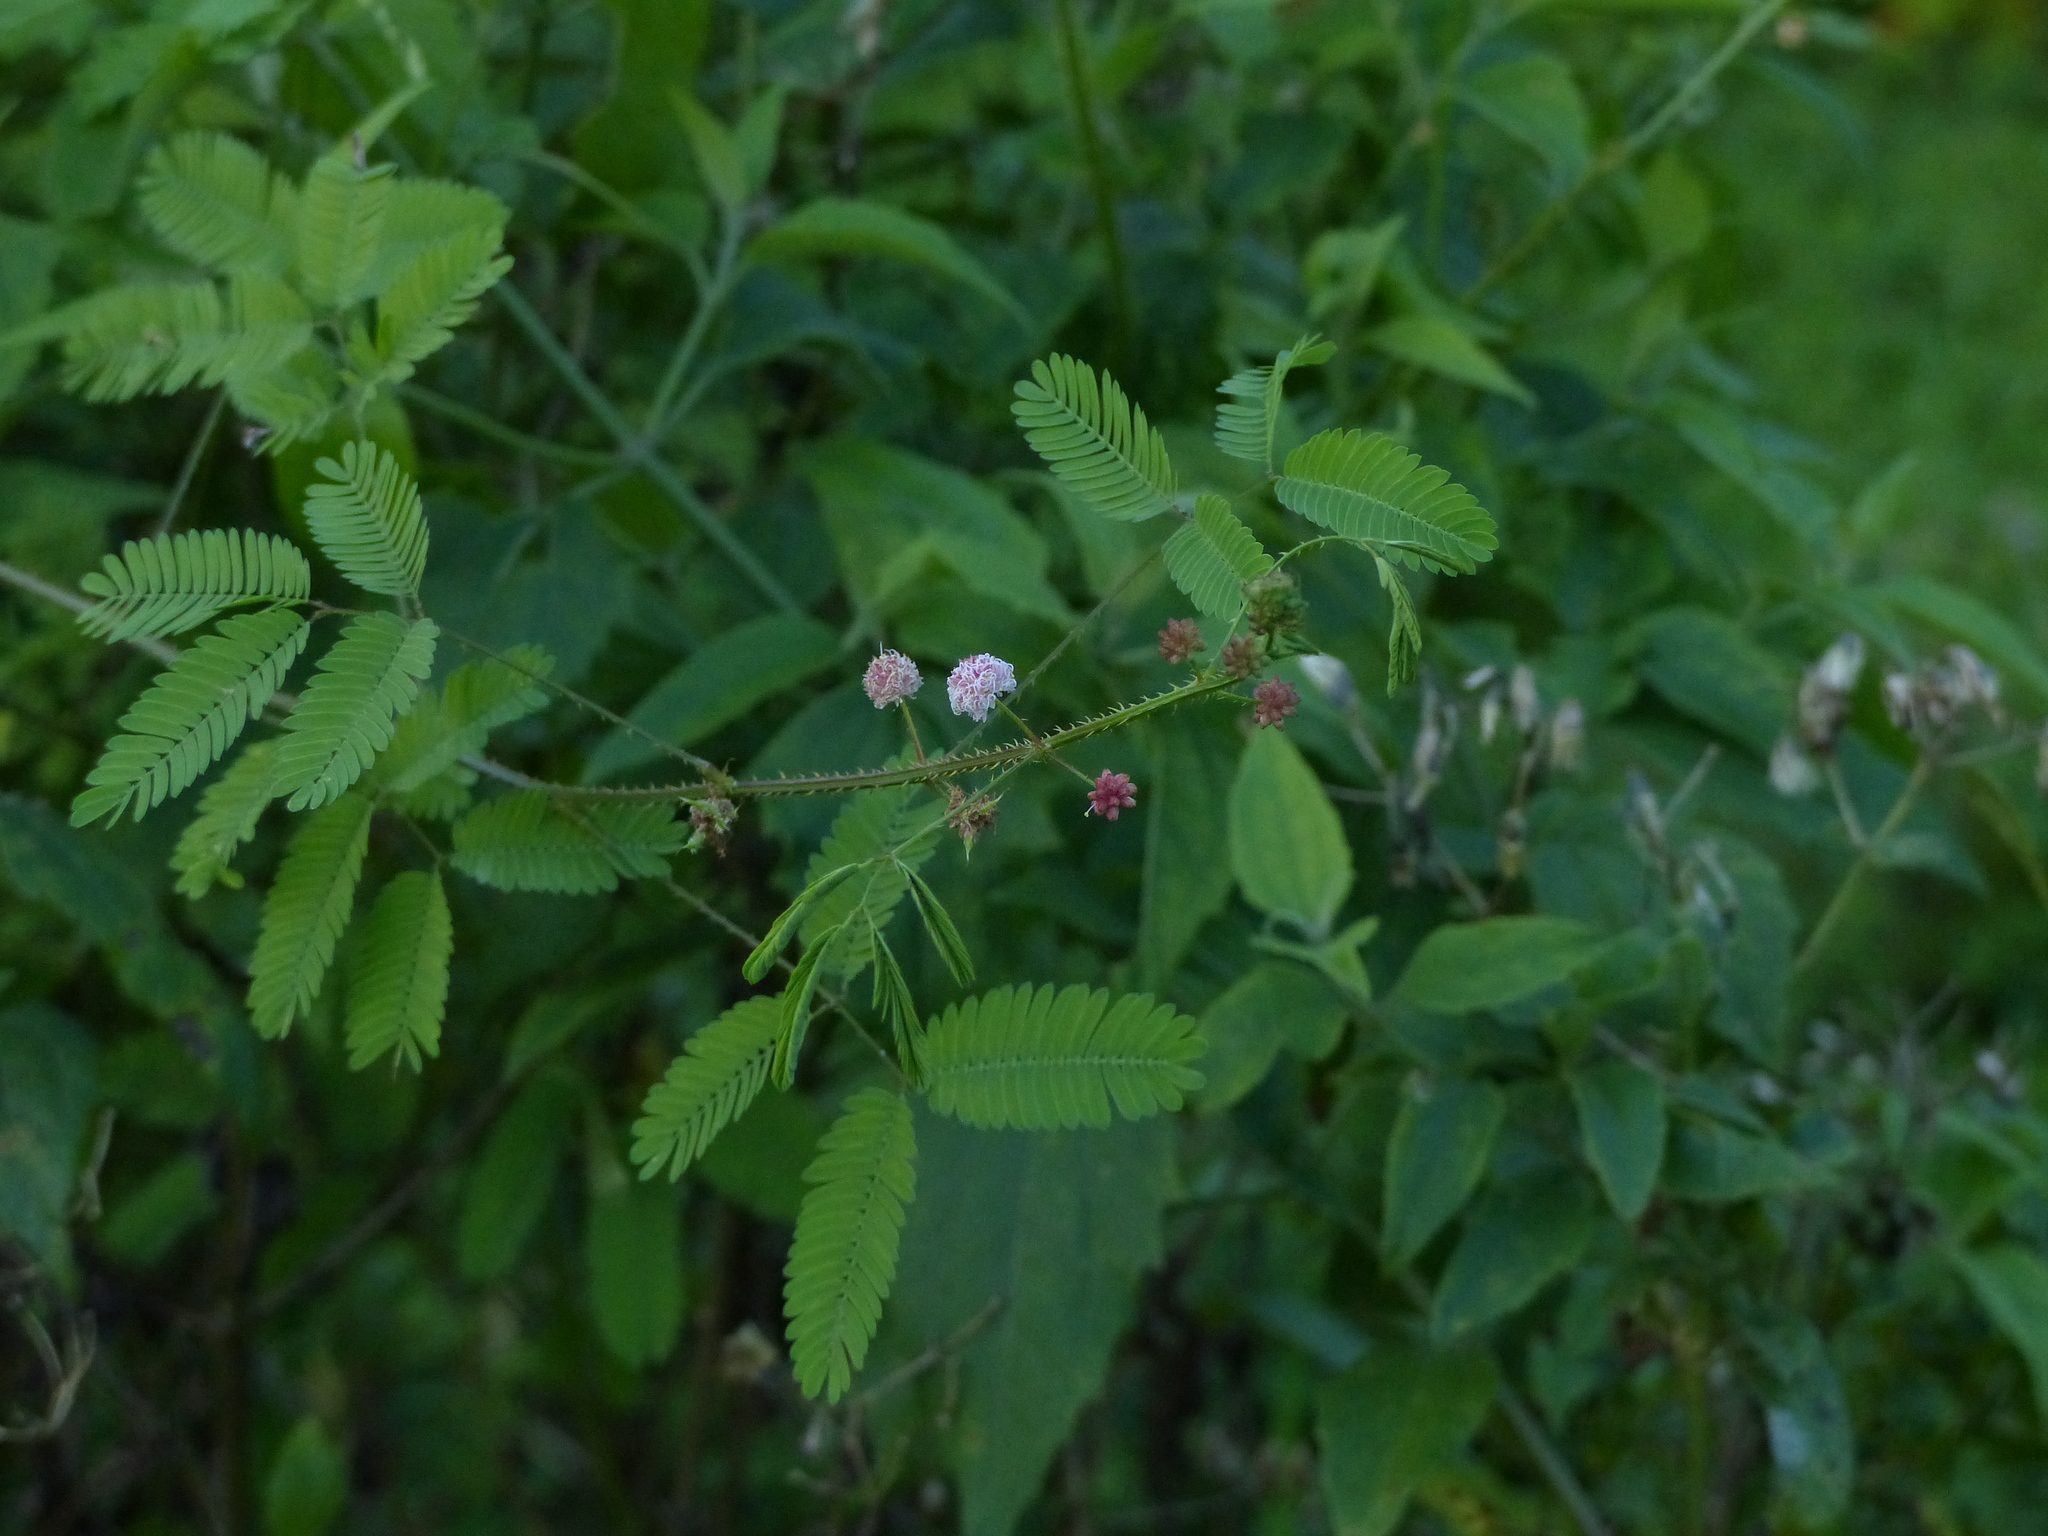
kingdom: Plantae
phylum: Tracheophyta
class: Magnoliopsida
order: Fabales
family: Fabaceae
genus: Mimosa
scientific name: Mimosa candollei
